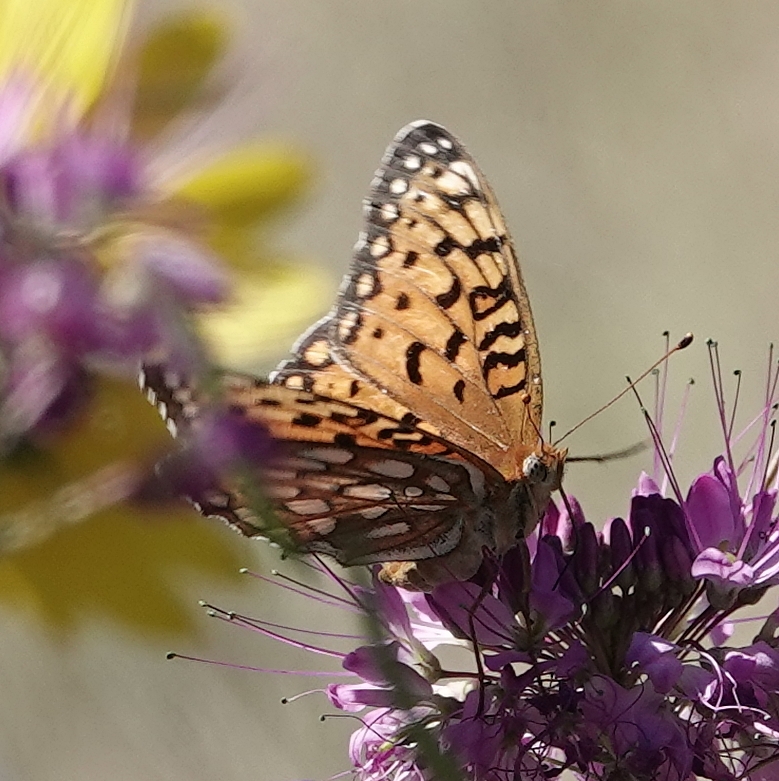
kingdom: Animalia
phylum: Arthropoda
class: Insecta
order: Lepidoptera
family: Nymphalidae
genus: Speyeria
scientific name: Speyeria edwardsii
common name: Edwards' fritillary
